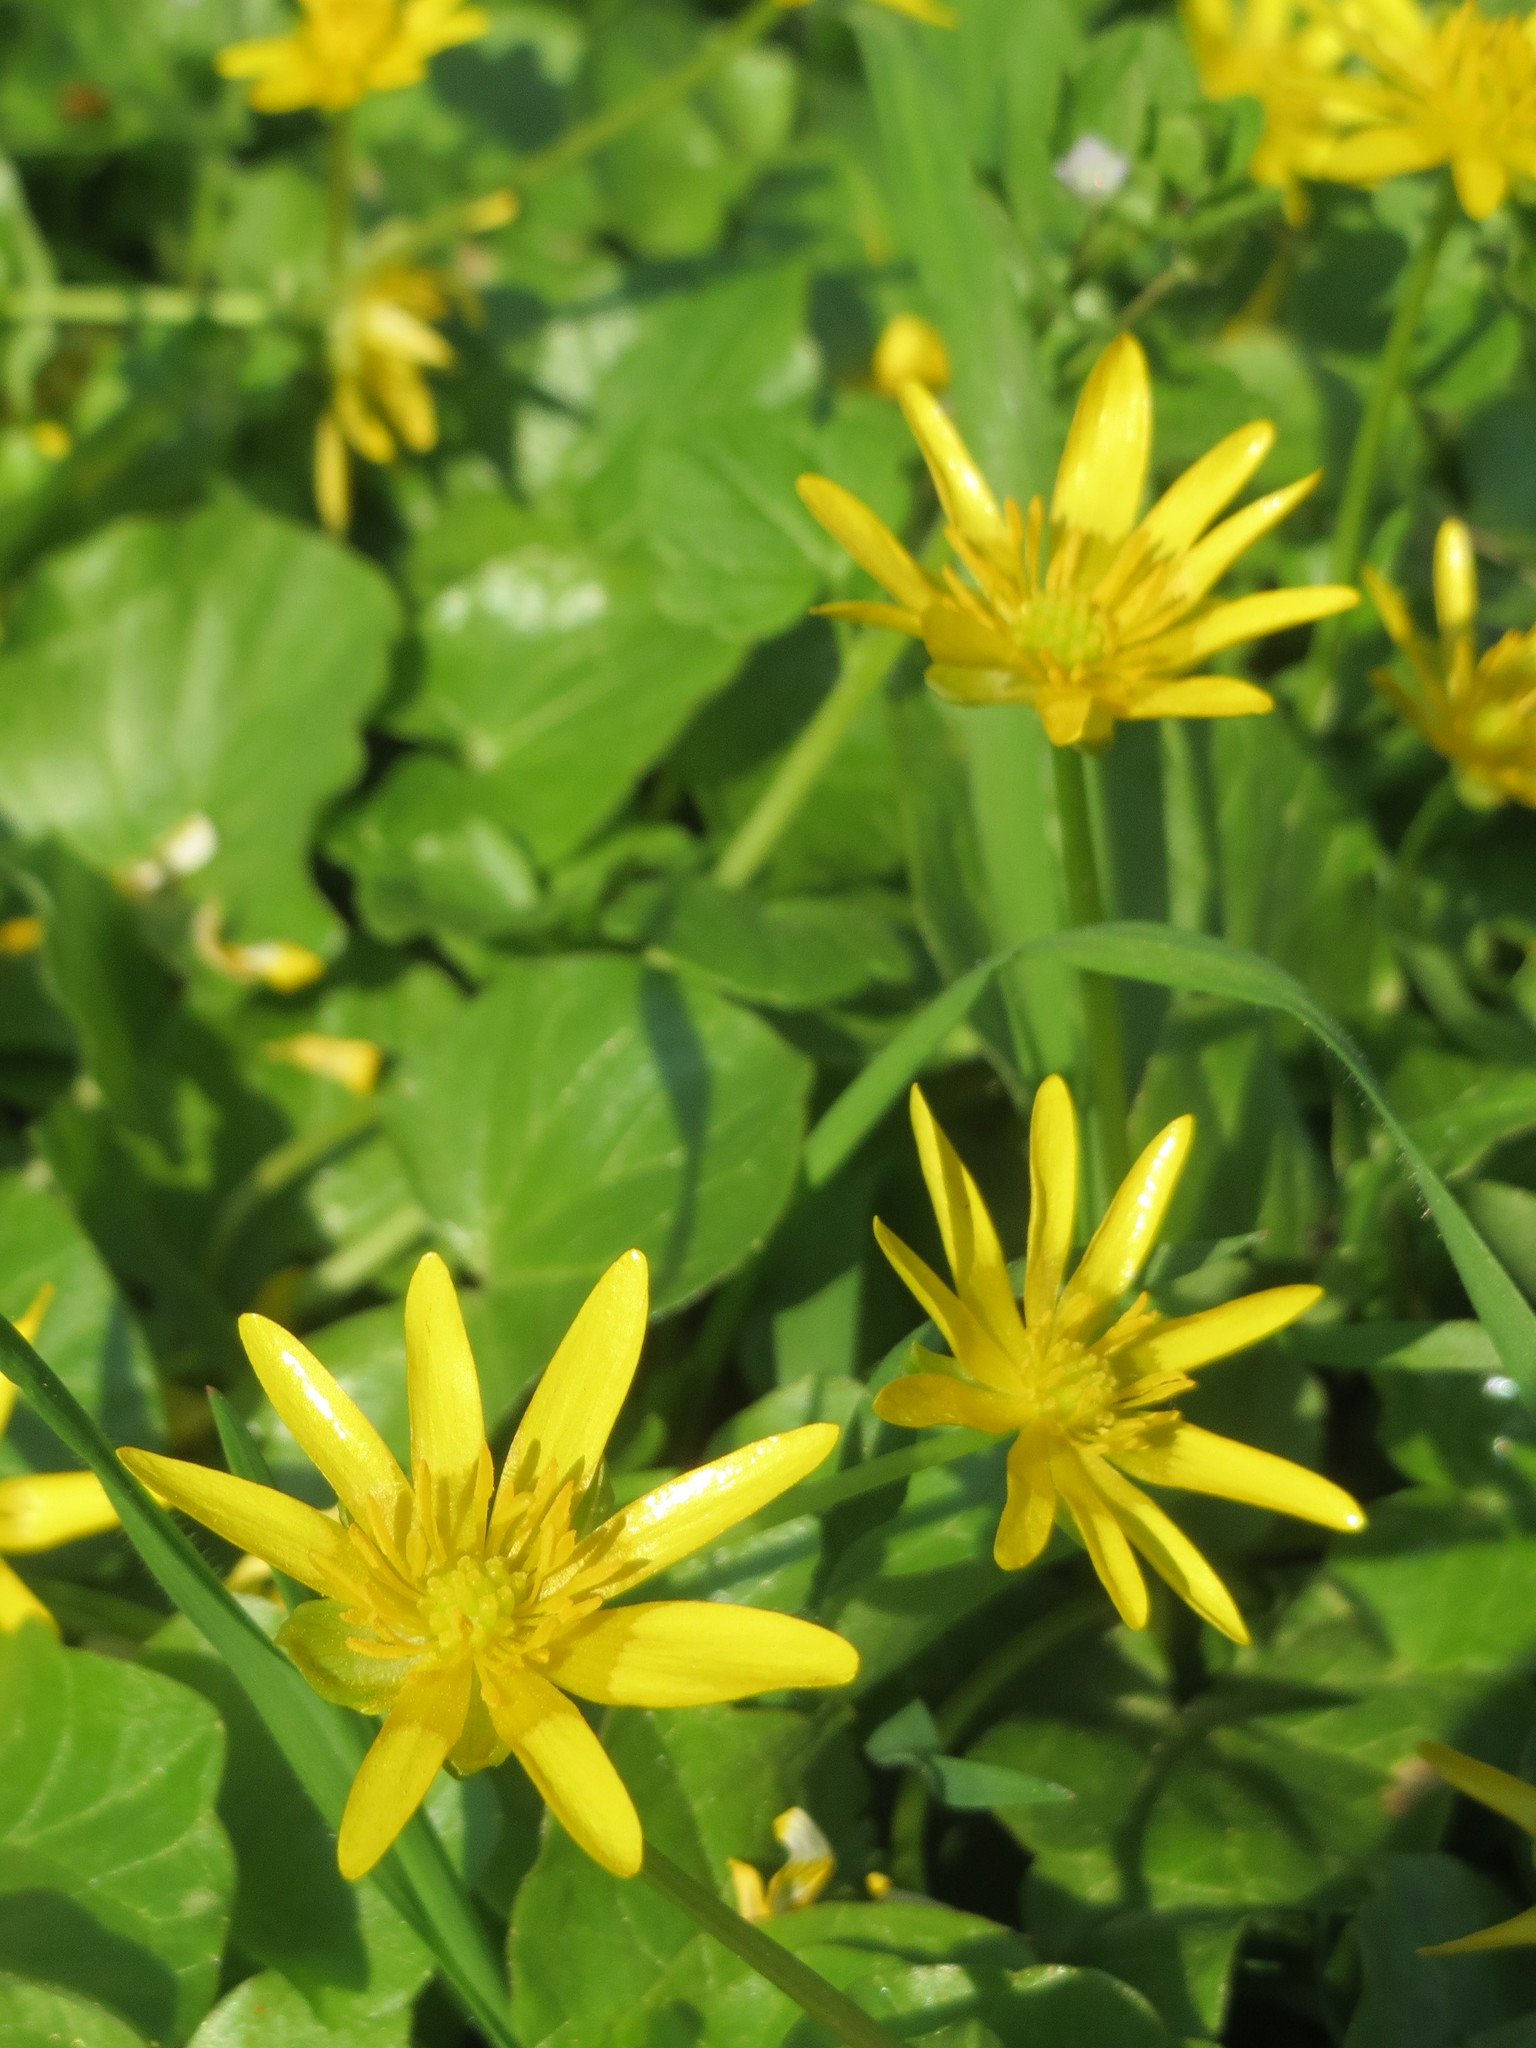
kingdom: Plantae
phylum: Tracheophyta
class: Magnoliopsida
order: Ranunculales
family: Ranunculaceae
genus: Ficaria
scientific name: Ficaria verna
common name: Lesser celandine
